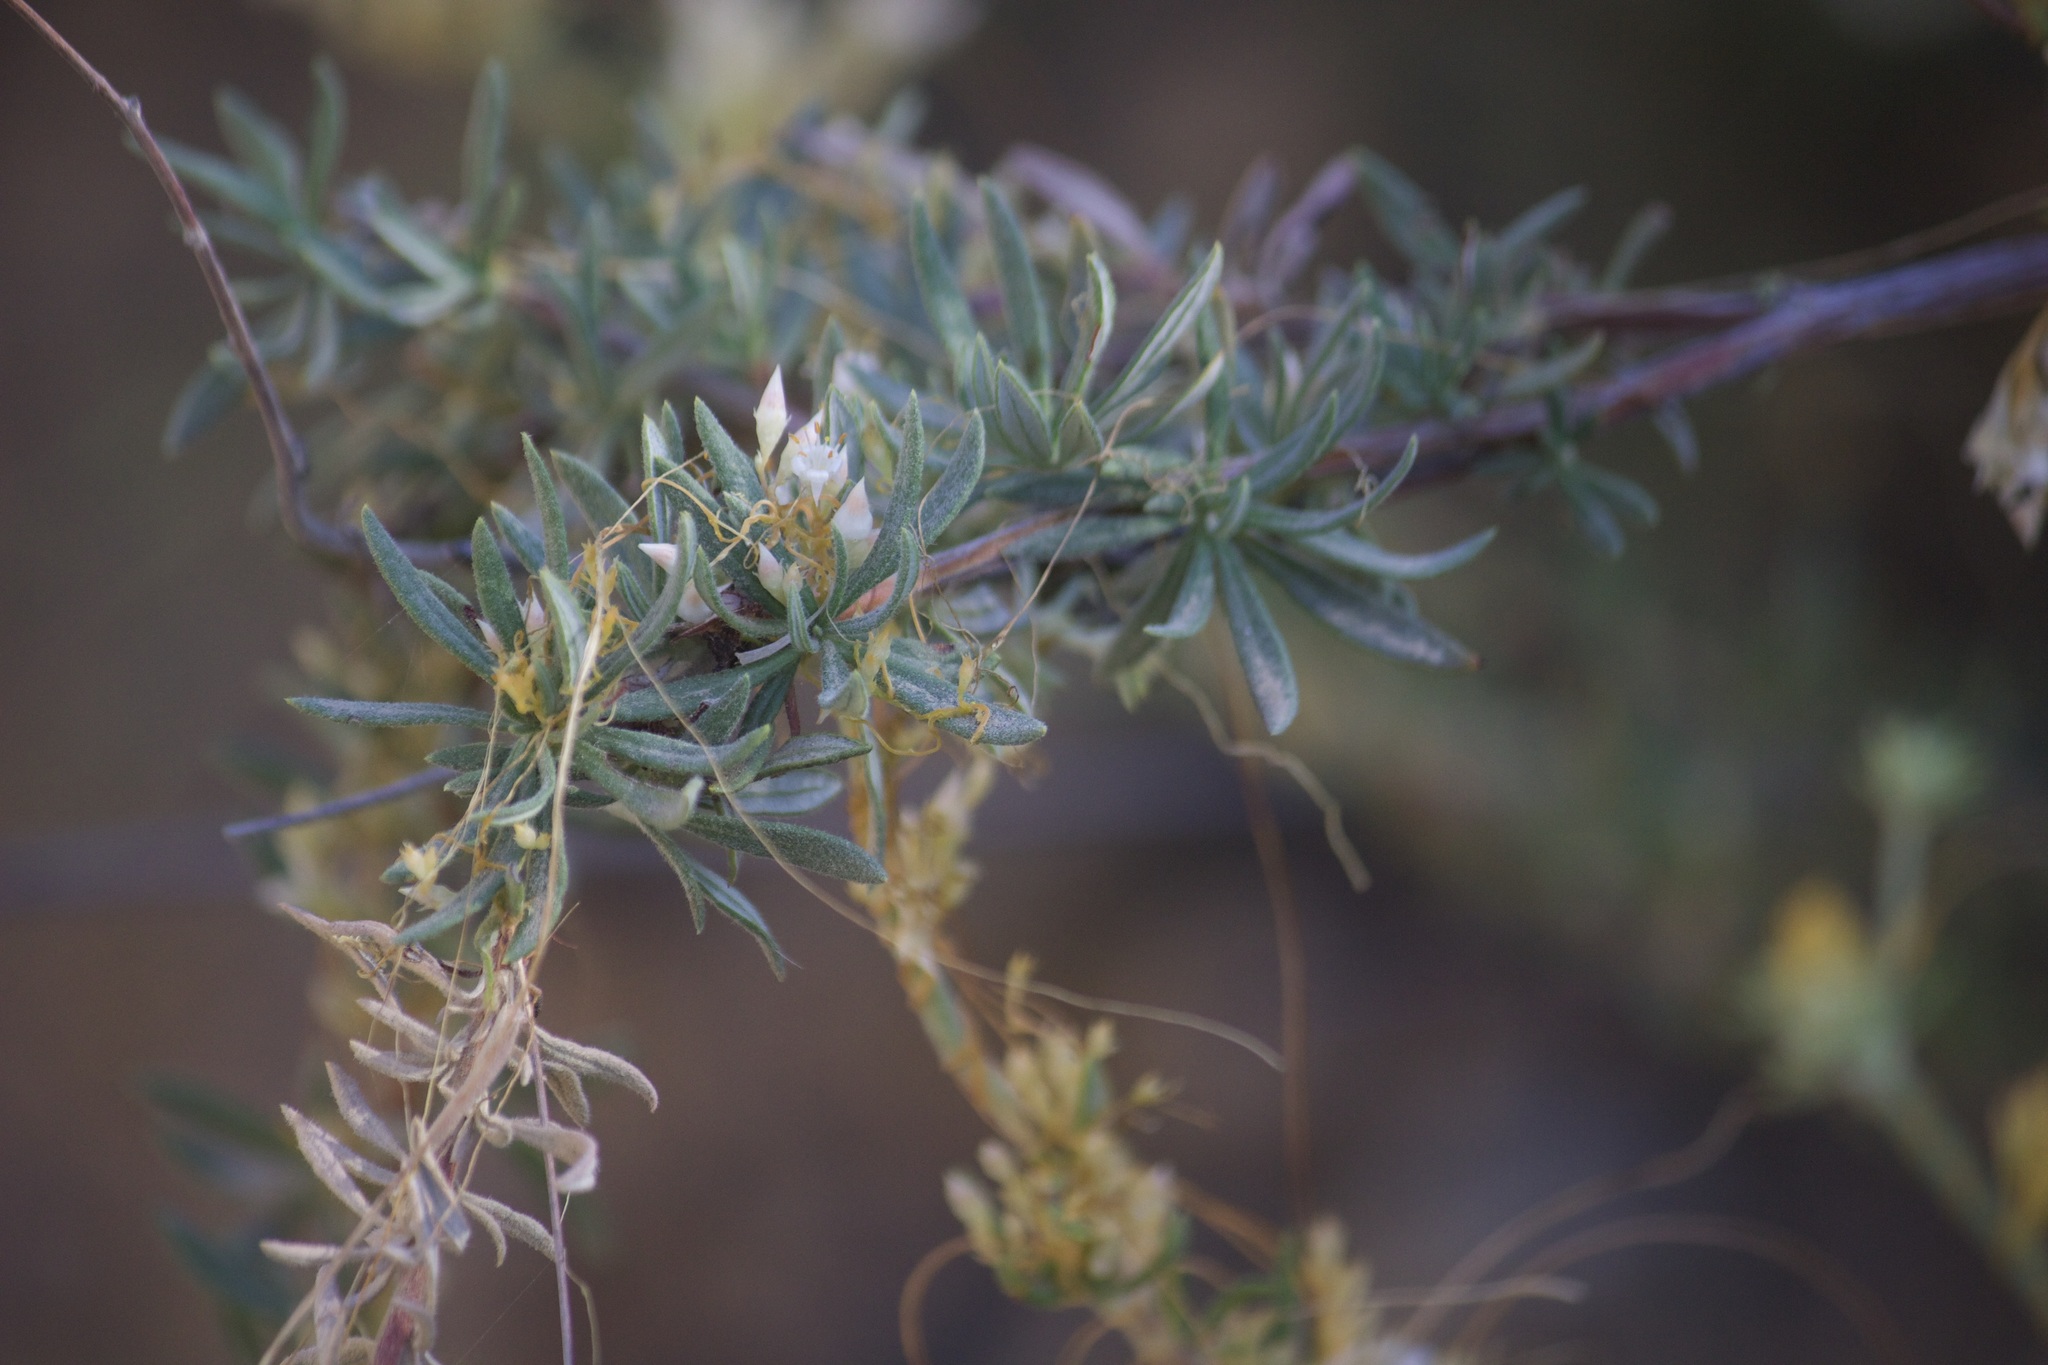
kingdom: Plantae
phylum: Tracheophyta
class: Magnoliopsida
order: Caryophyllales
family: Polygonaceae
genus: Eriogonum
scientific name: Eriogonum fasciculatum
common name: California wild buckwheat
